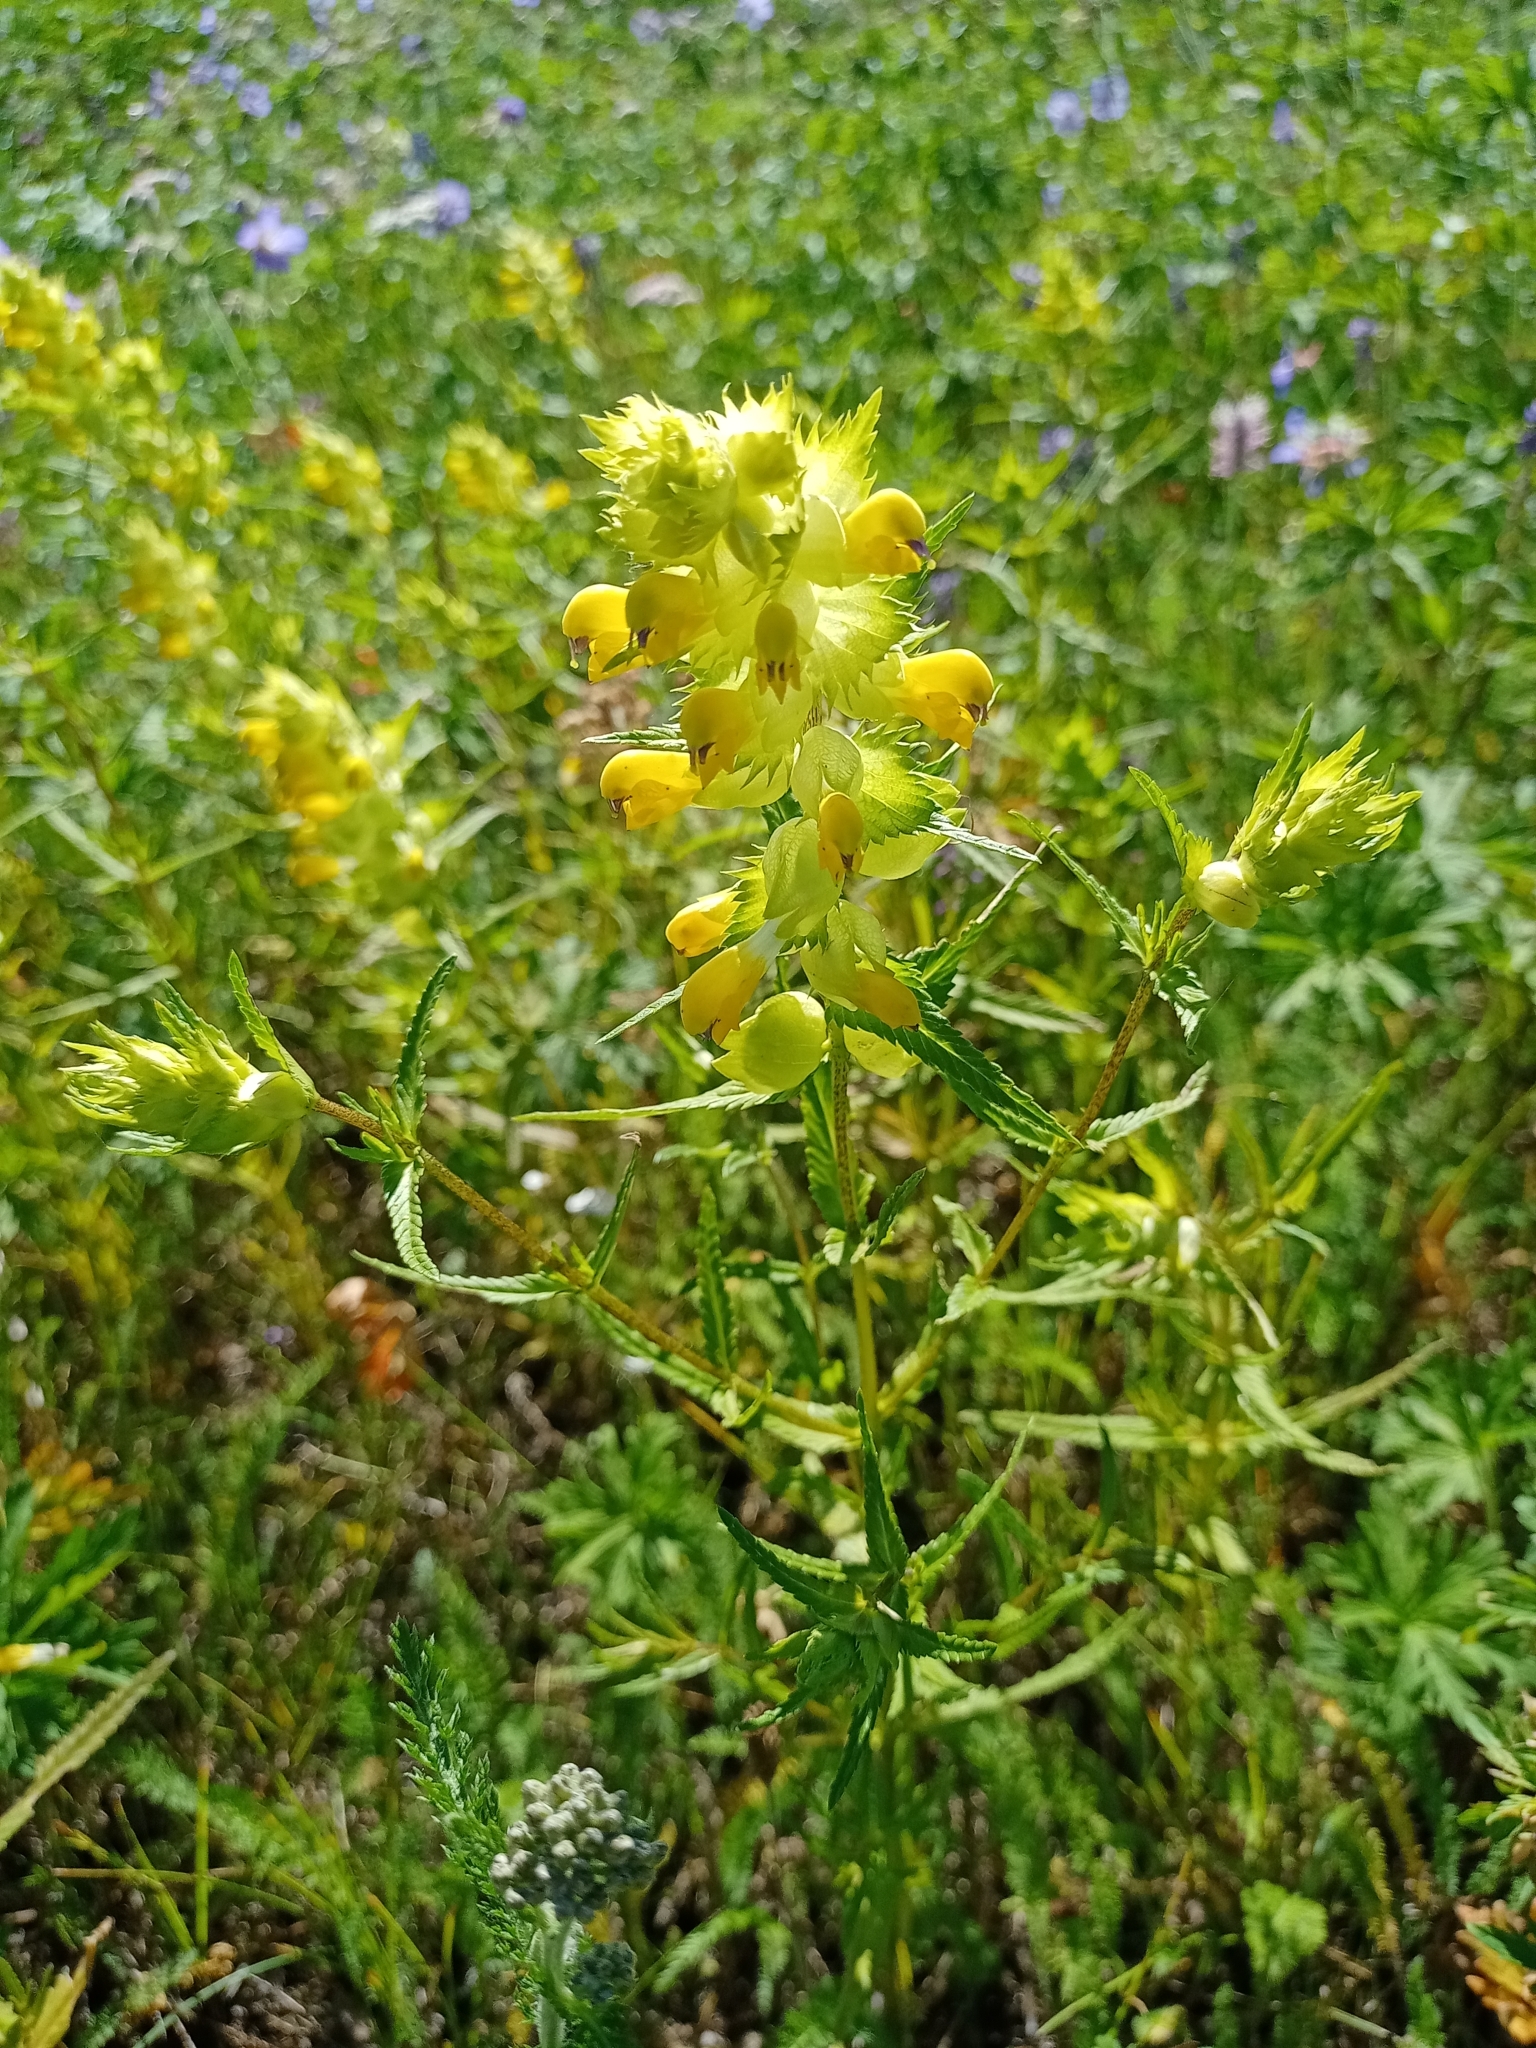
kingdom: Plantae
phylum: Tracheophyta
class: Magnoliopsida
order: Lamiales
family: Orobanchaceae
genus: Rhinanthus
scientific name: Rhinanthus serotinus
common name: Late-flowering yellow rattle
